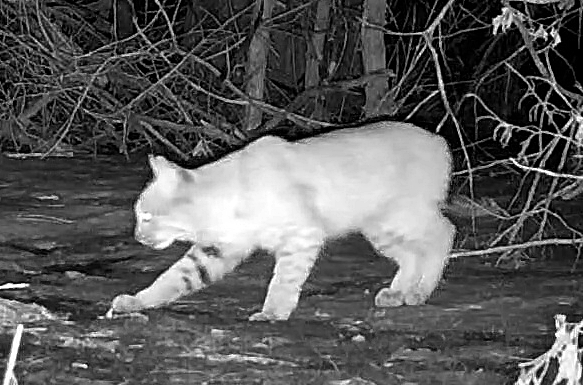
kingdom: Animalia
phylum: Chordata
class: Mammalia
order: Carnivora
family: Felidae
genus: Lynx
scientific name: Lynx rufus
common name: Bobcat
